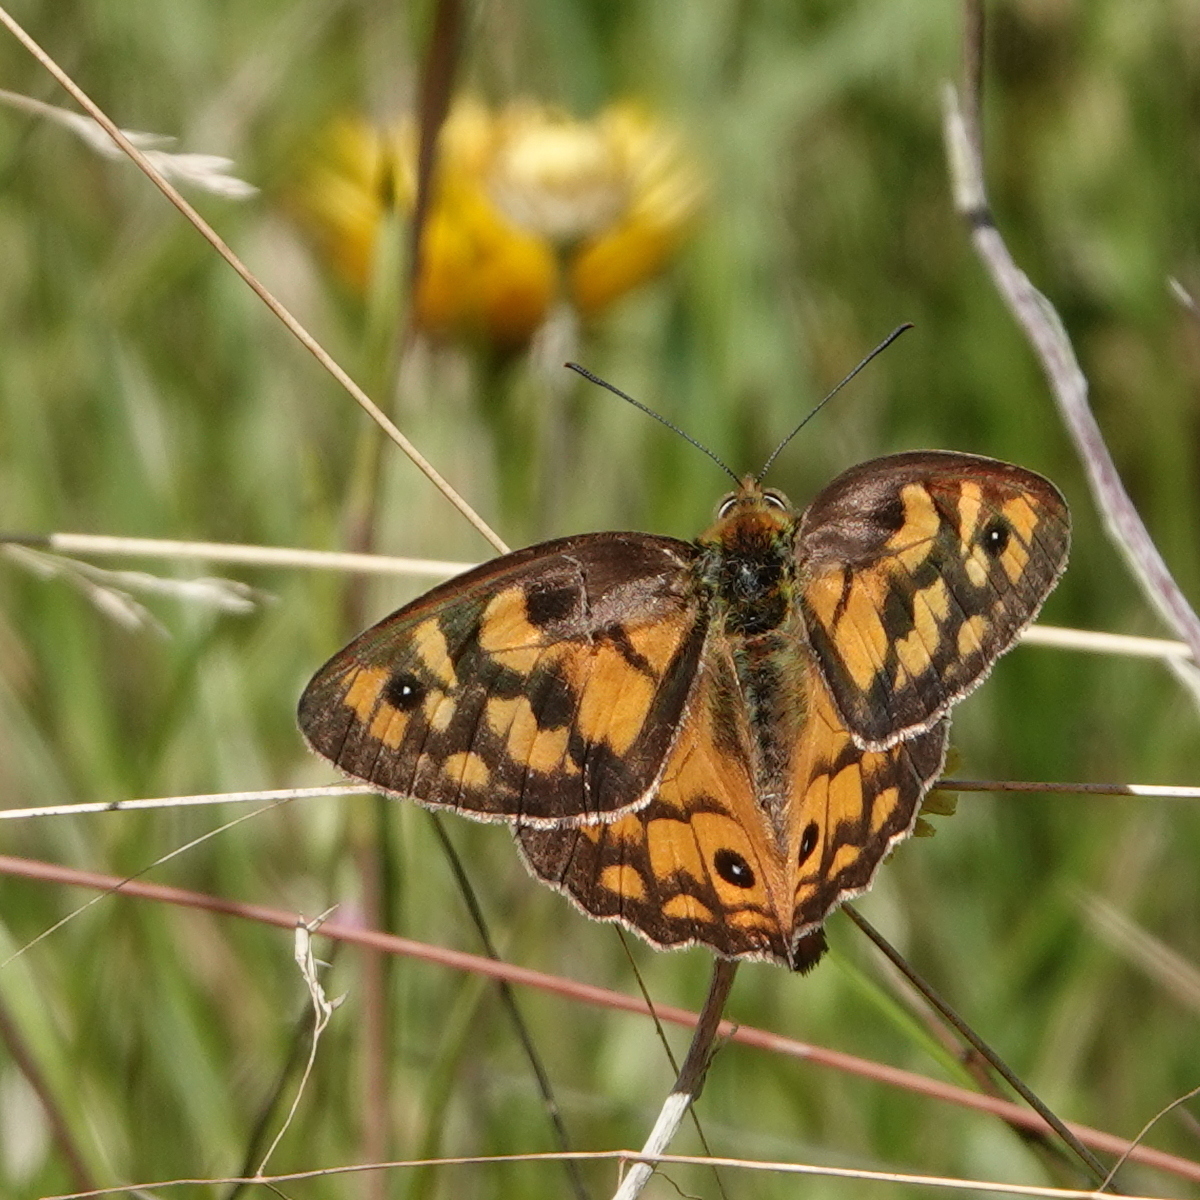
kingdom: Animalia
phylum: Arthropoda
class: Insecta
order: Lepidoptera
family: Nymphalidae
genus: Heteronympha
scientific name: Heteronympha penelope
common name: Shouldered brown
